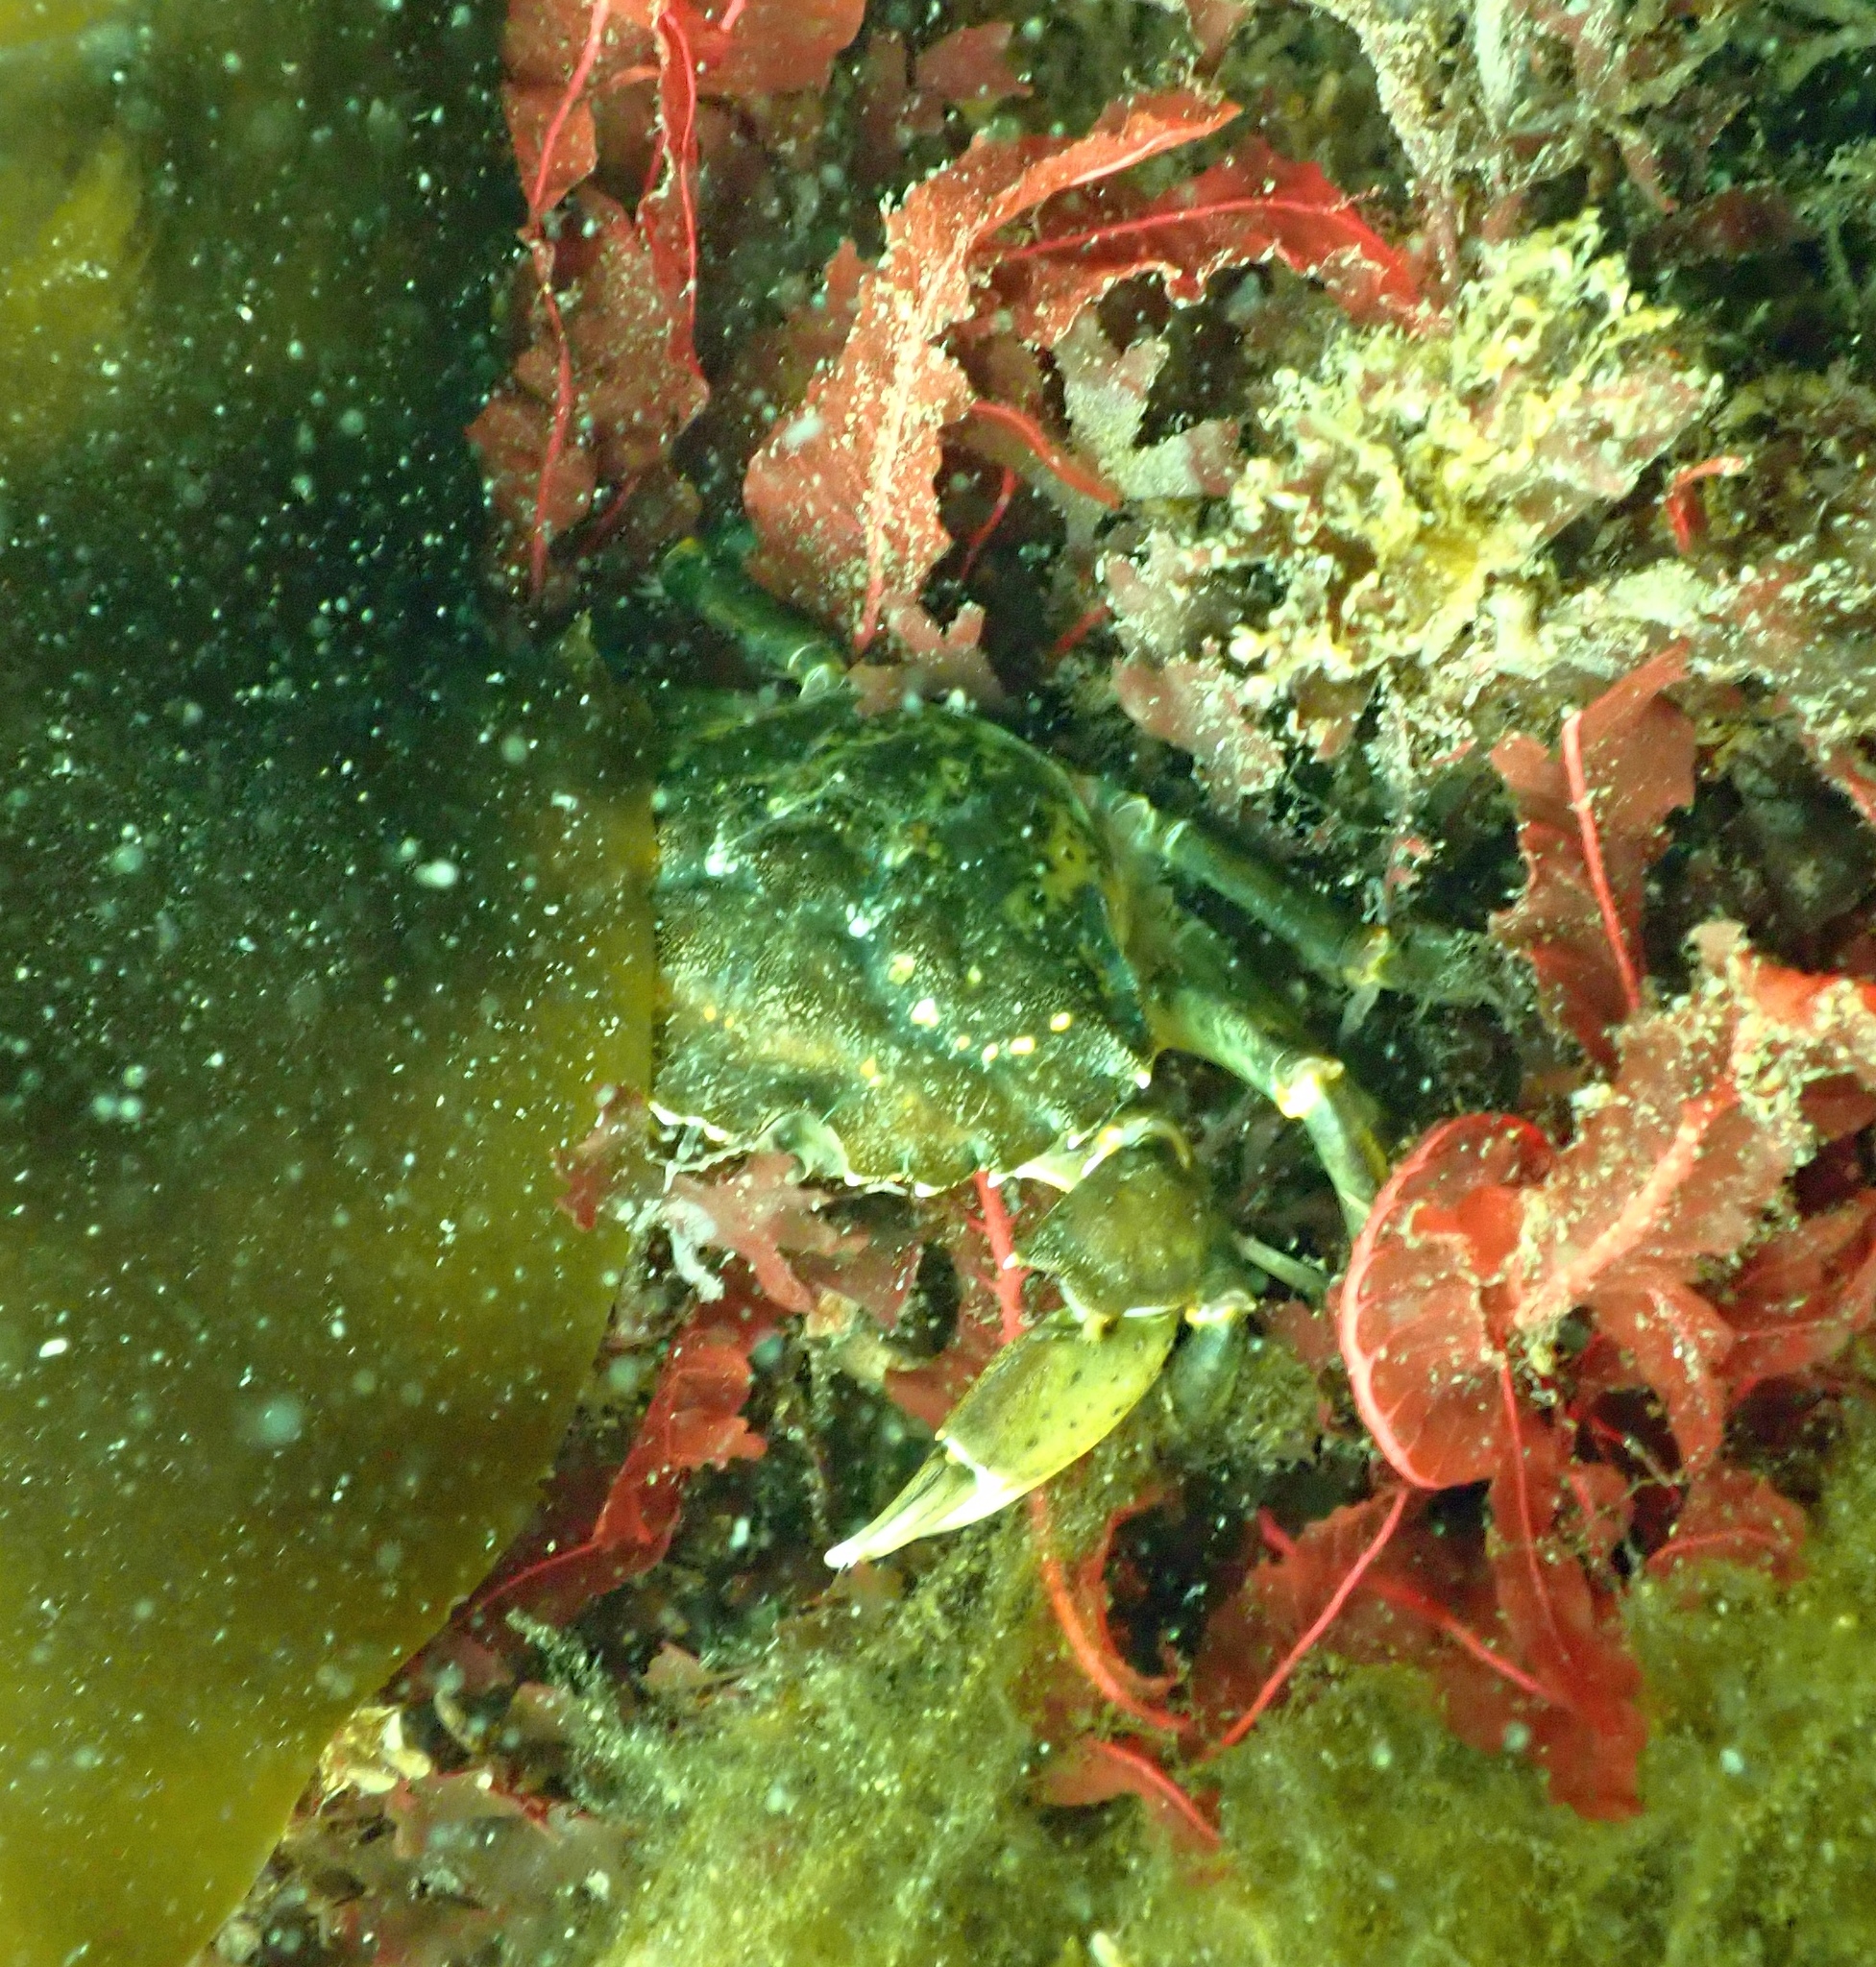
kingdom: Animalia
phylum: Arthropoda
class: Malacostraca
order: Decapoda
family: Carcinidae
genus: Carcinus
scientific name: Carcinus maenas
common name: European green crab
